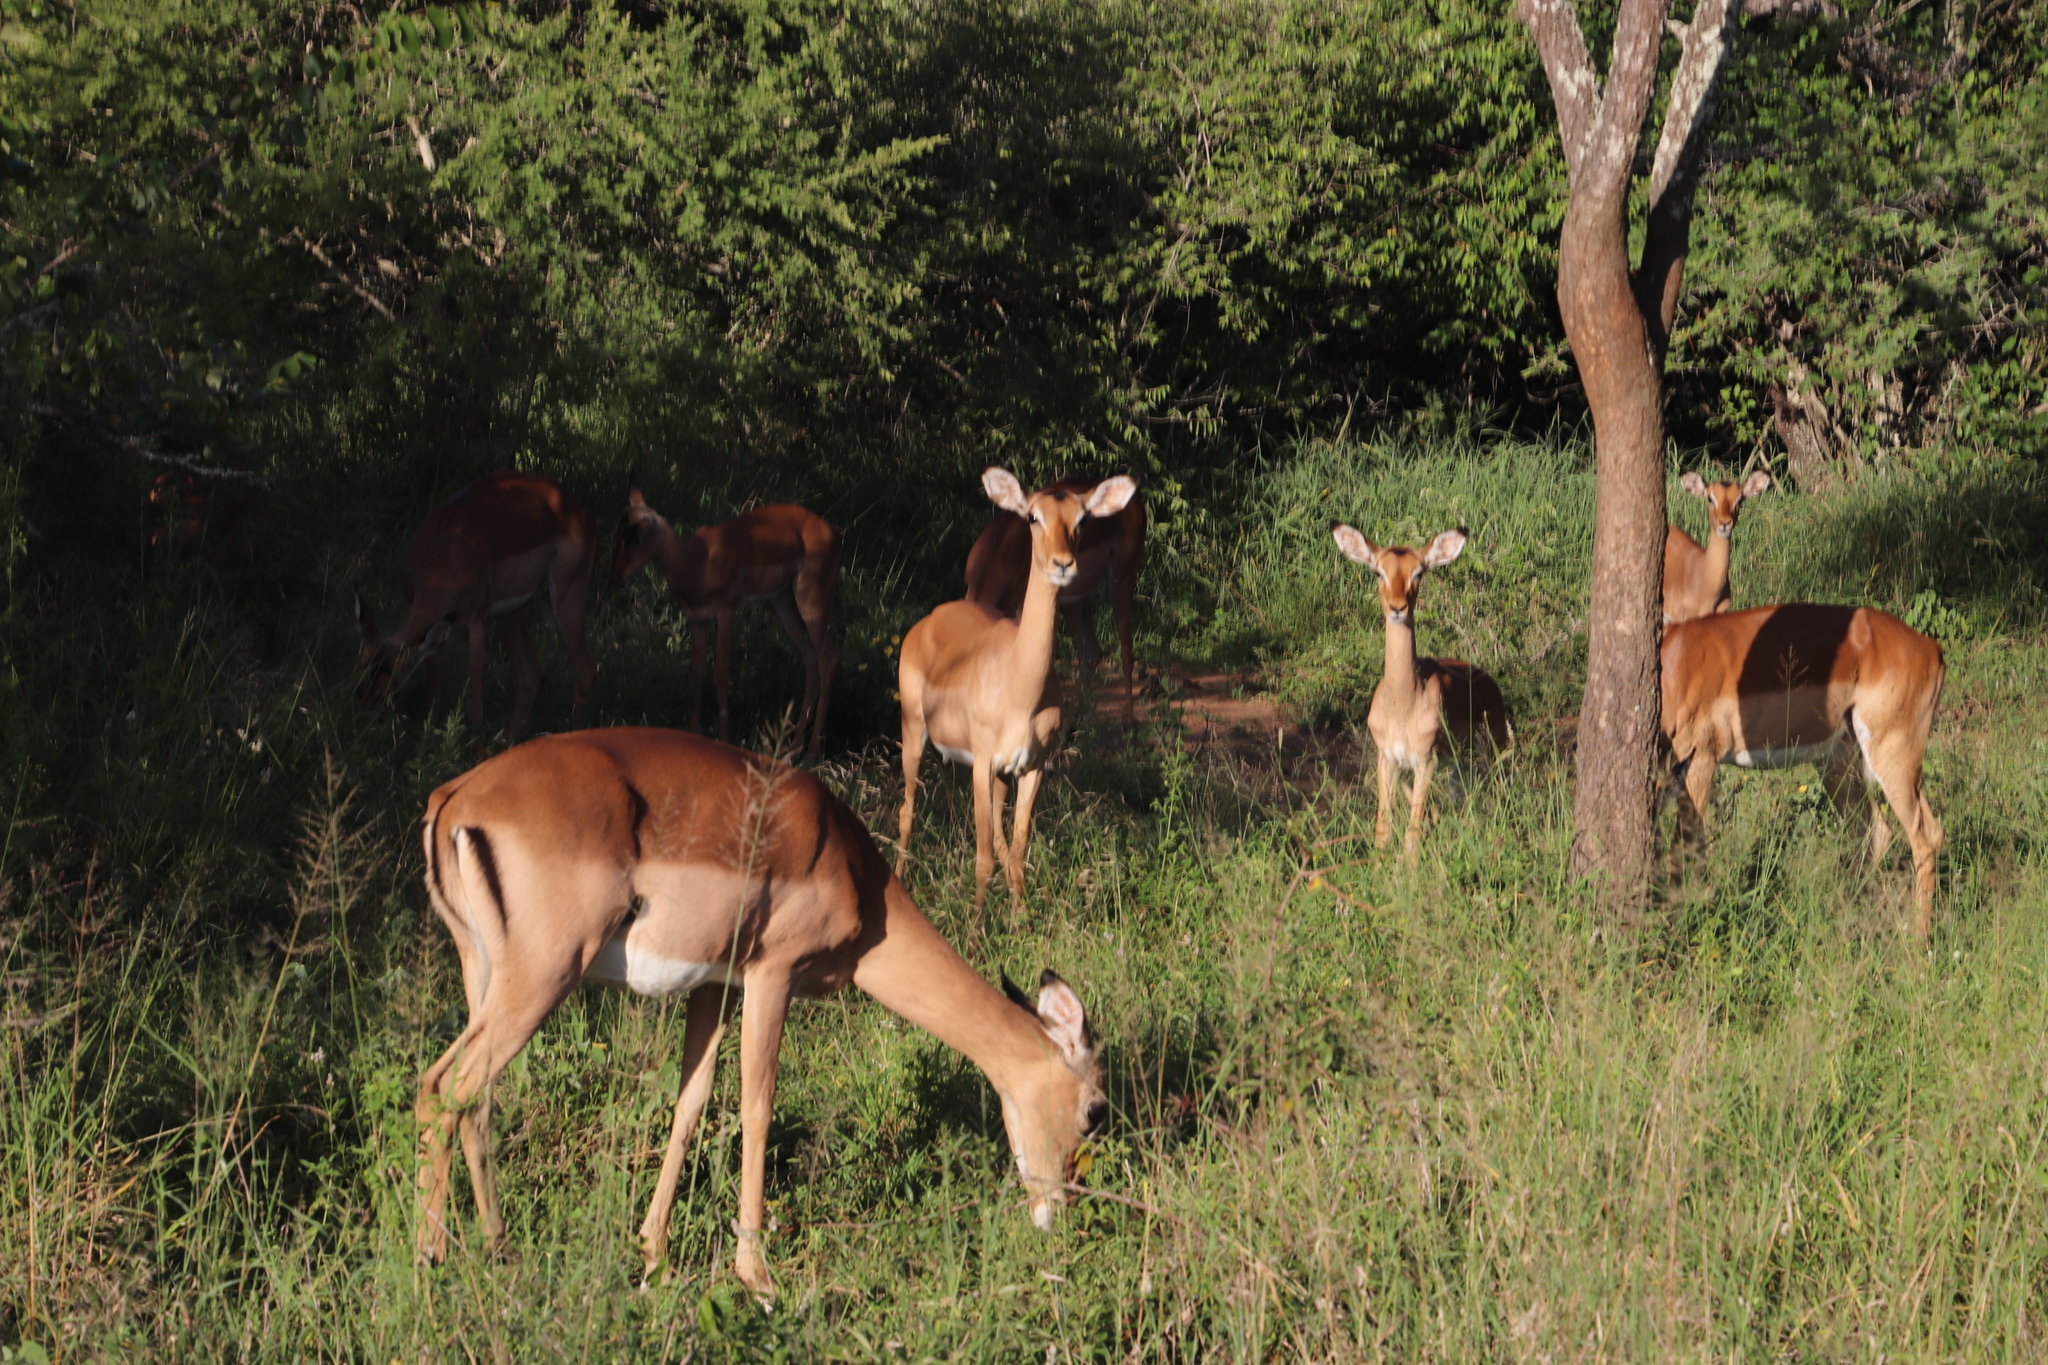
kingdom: Animalia
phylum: Chordata
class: Mammalia
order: Artiodactyla
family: Bovidae
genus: Aepyceros
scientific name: Aepyceros melampus
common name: Impala
